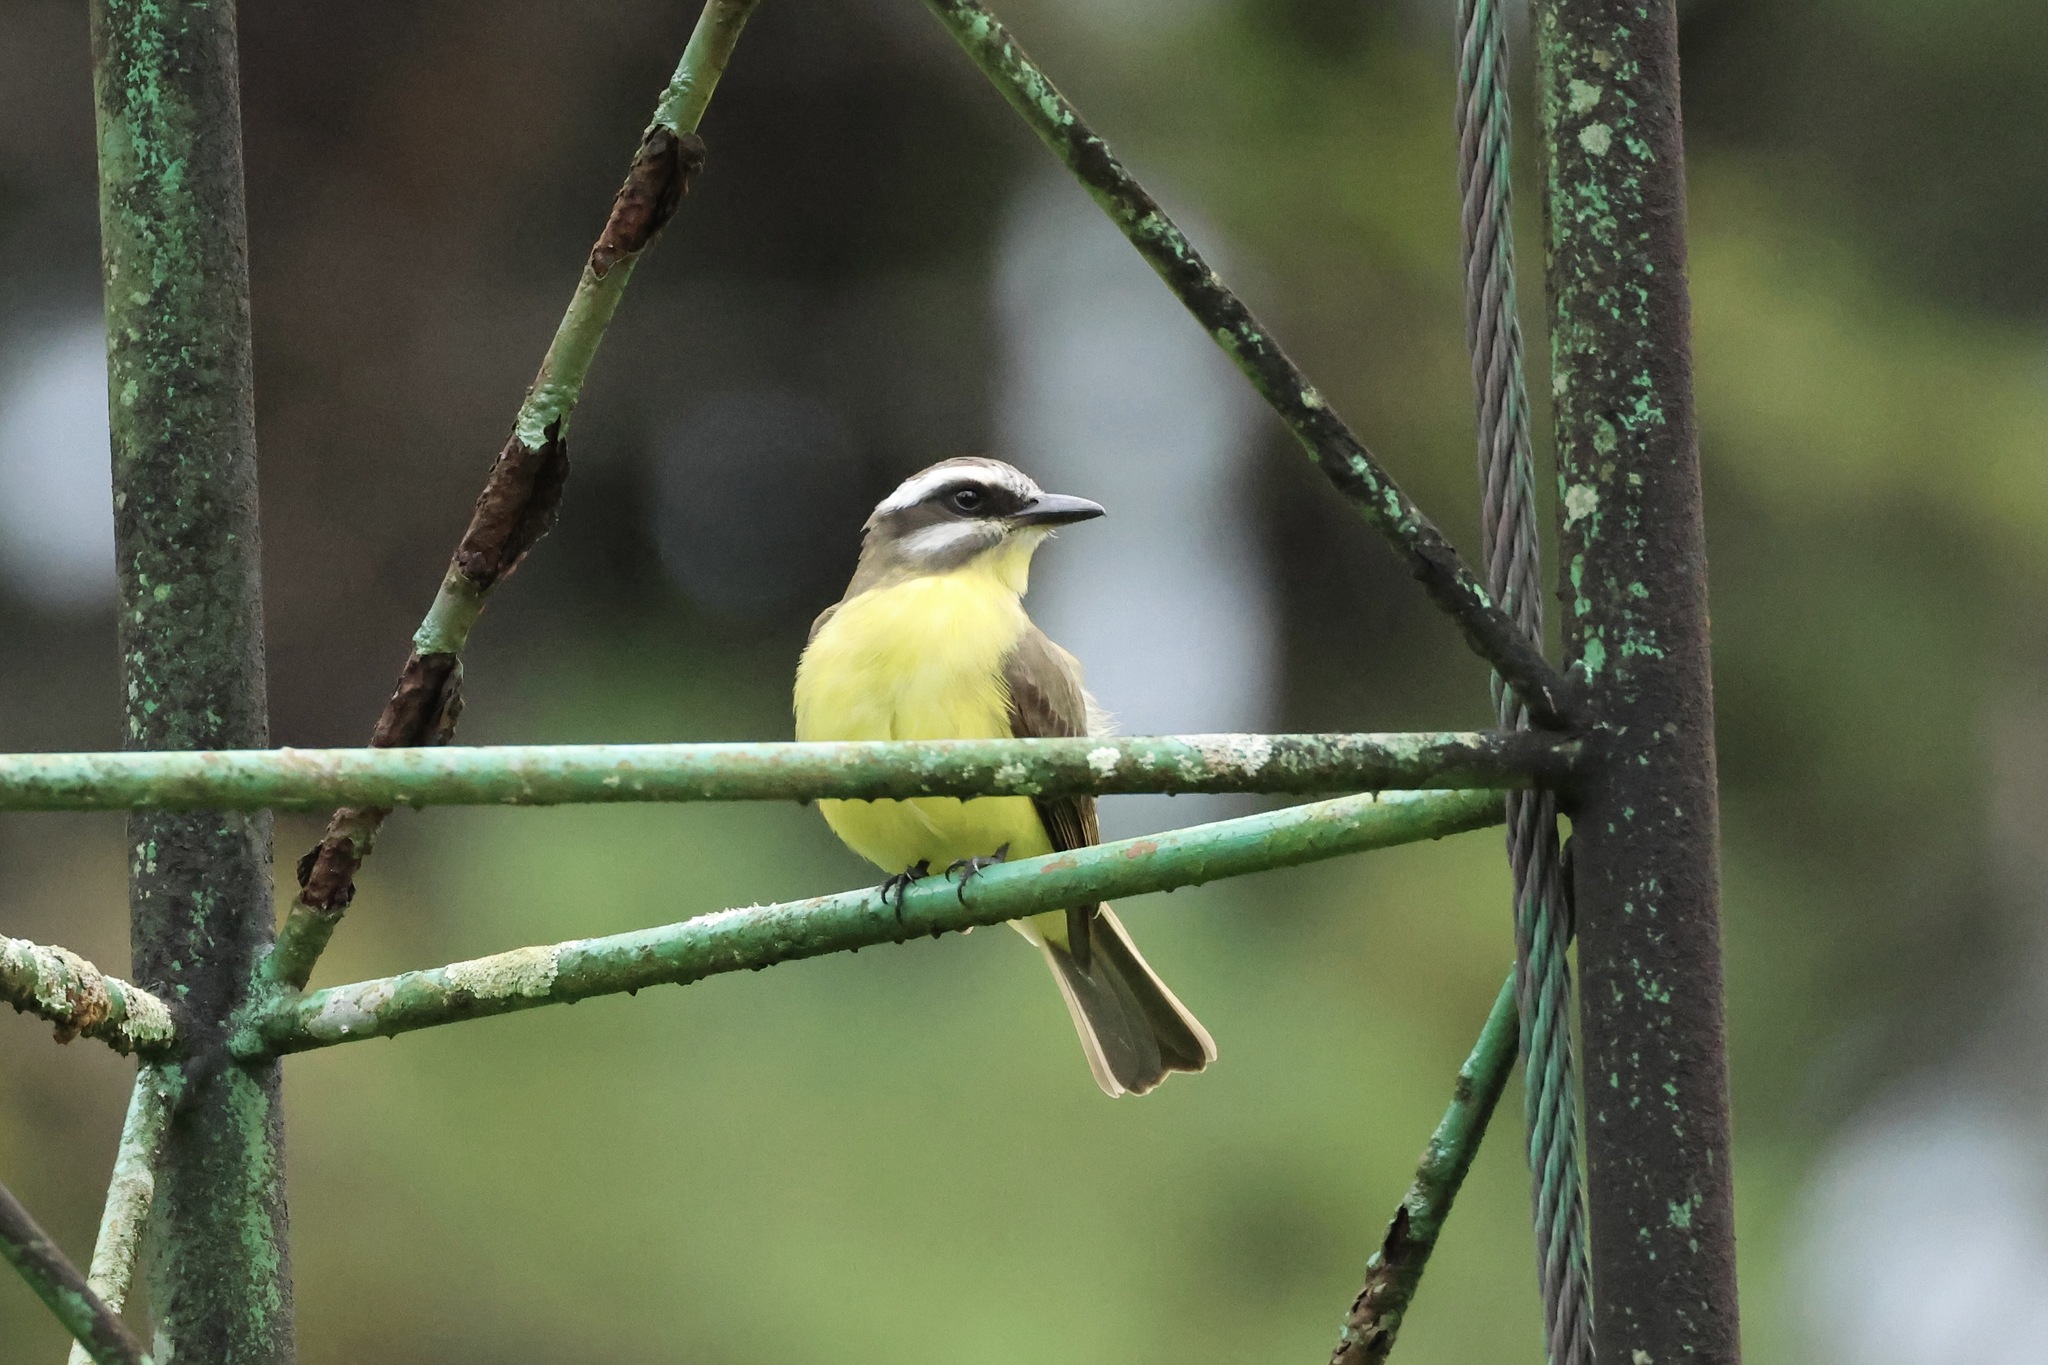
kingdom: Animalia
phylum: Chordata
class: Aves
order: Passeriformes
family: Tyrannidae
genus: Myiodynastes
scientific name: Myiodynastes hemichrysus
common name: Golden-bellied flycatcher
